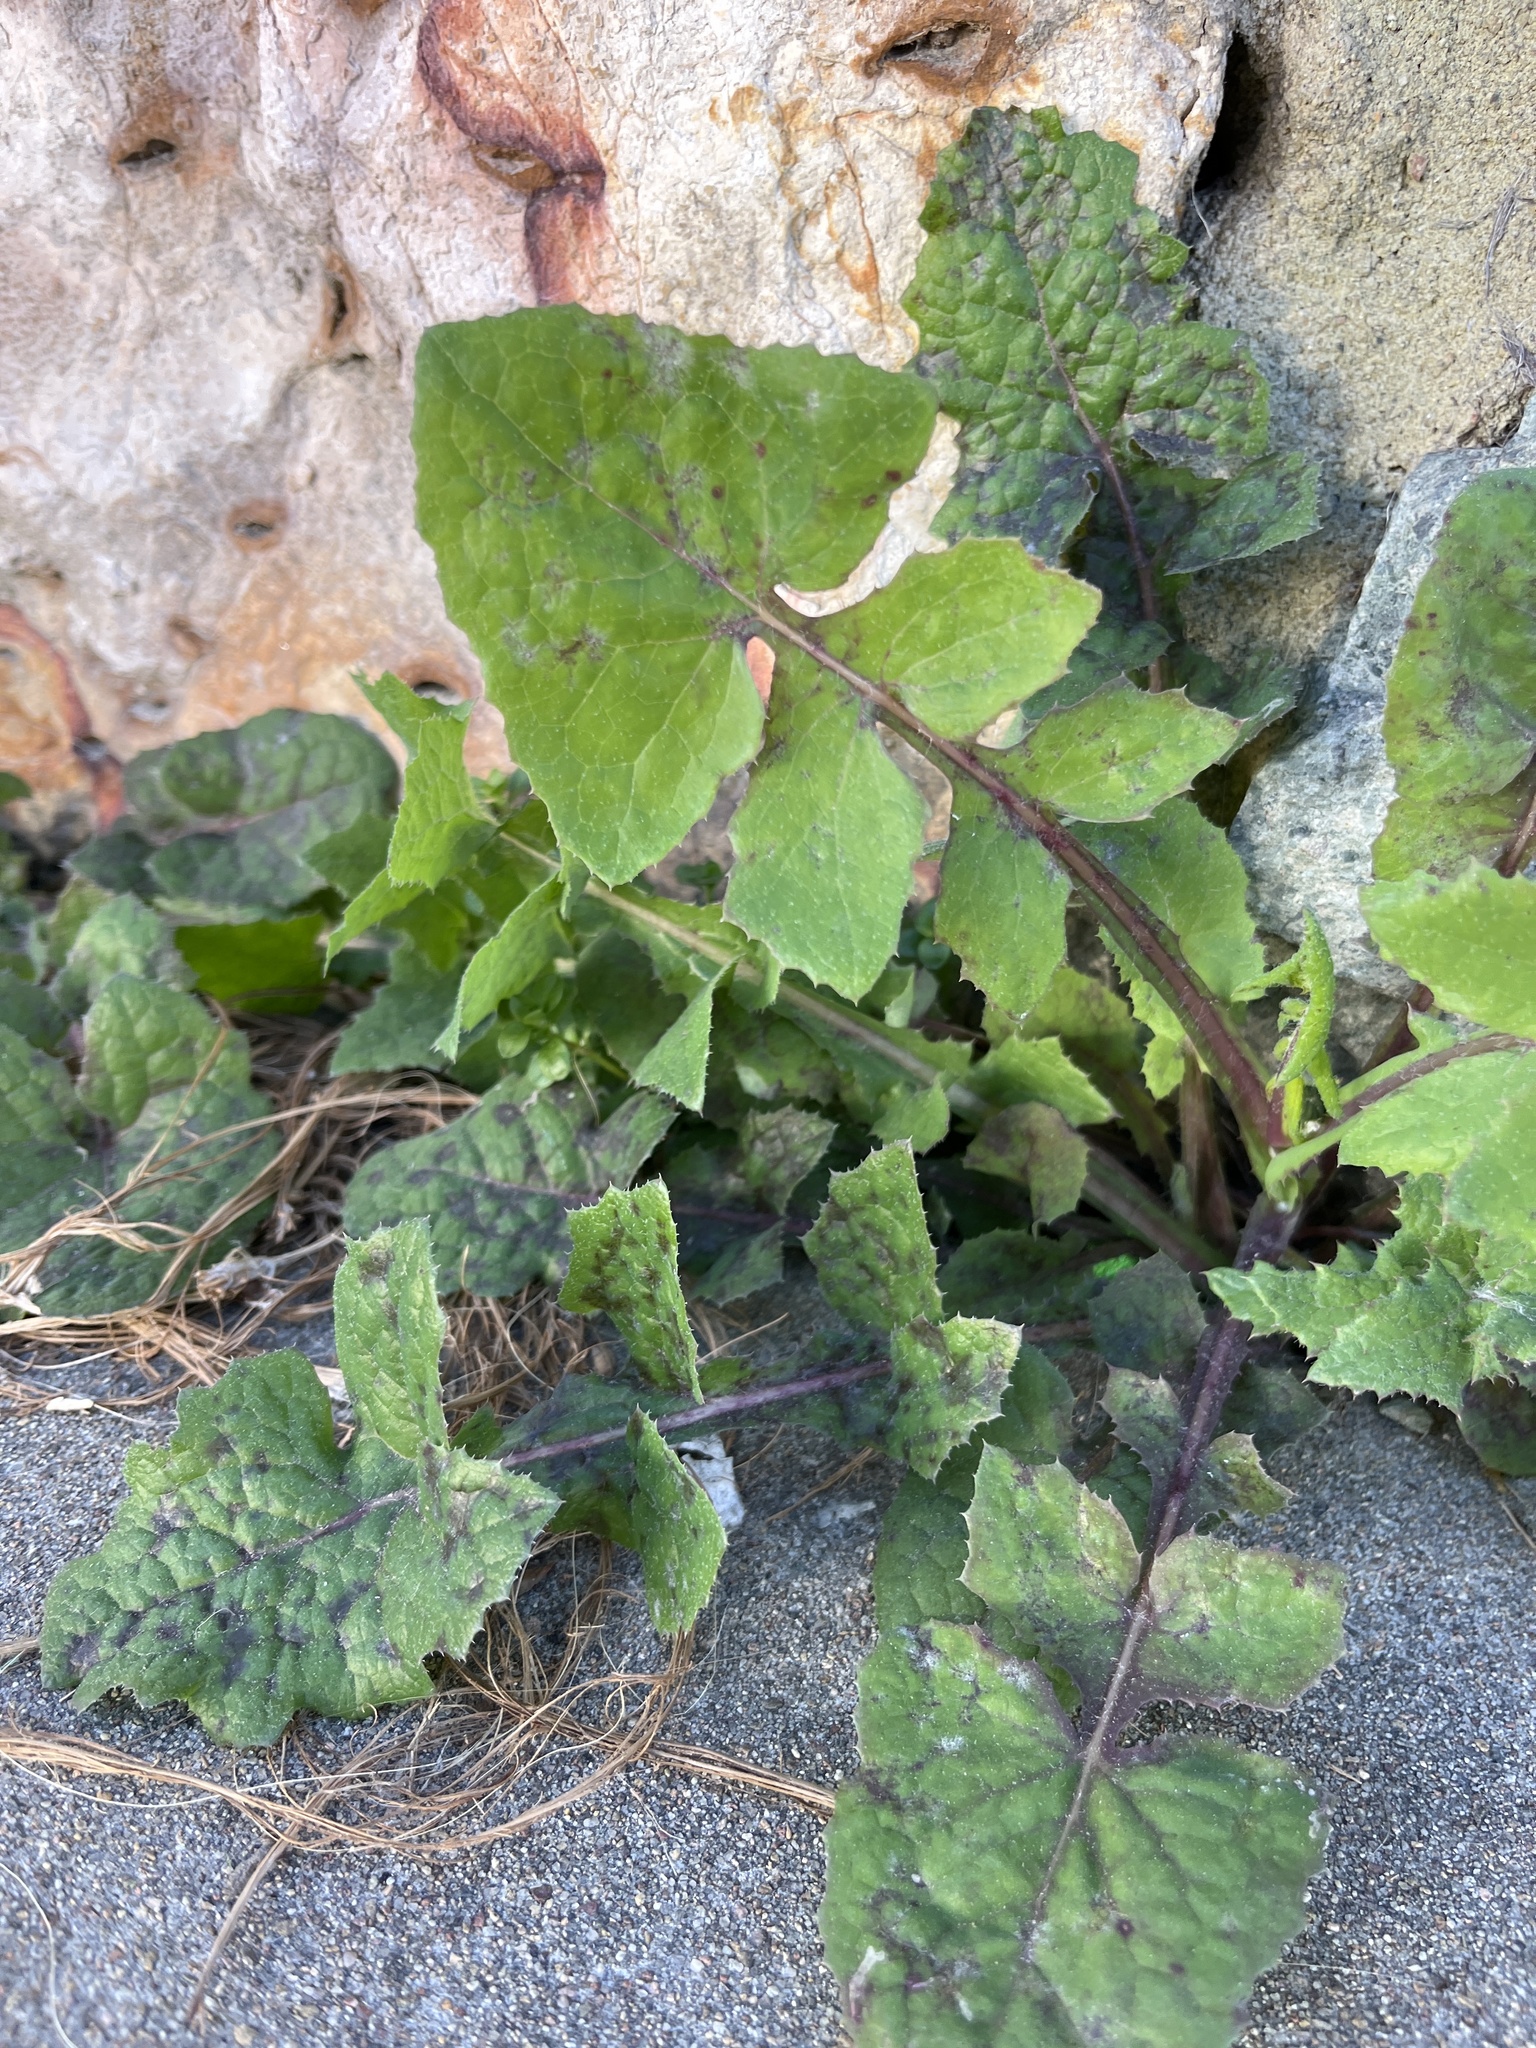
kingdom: Plantae
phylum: Tracheophyta
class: Magnoliopsida
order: Asterales
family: Asteraceae
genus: Sonchus
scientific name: Sonchus oleraceus
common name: Common sowthistle
